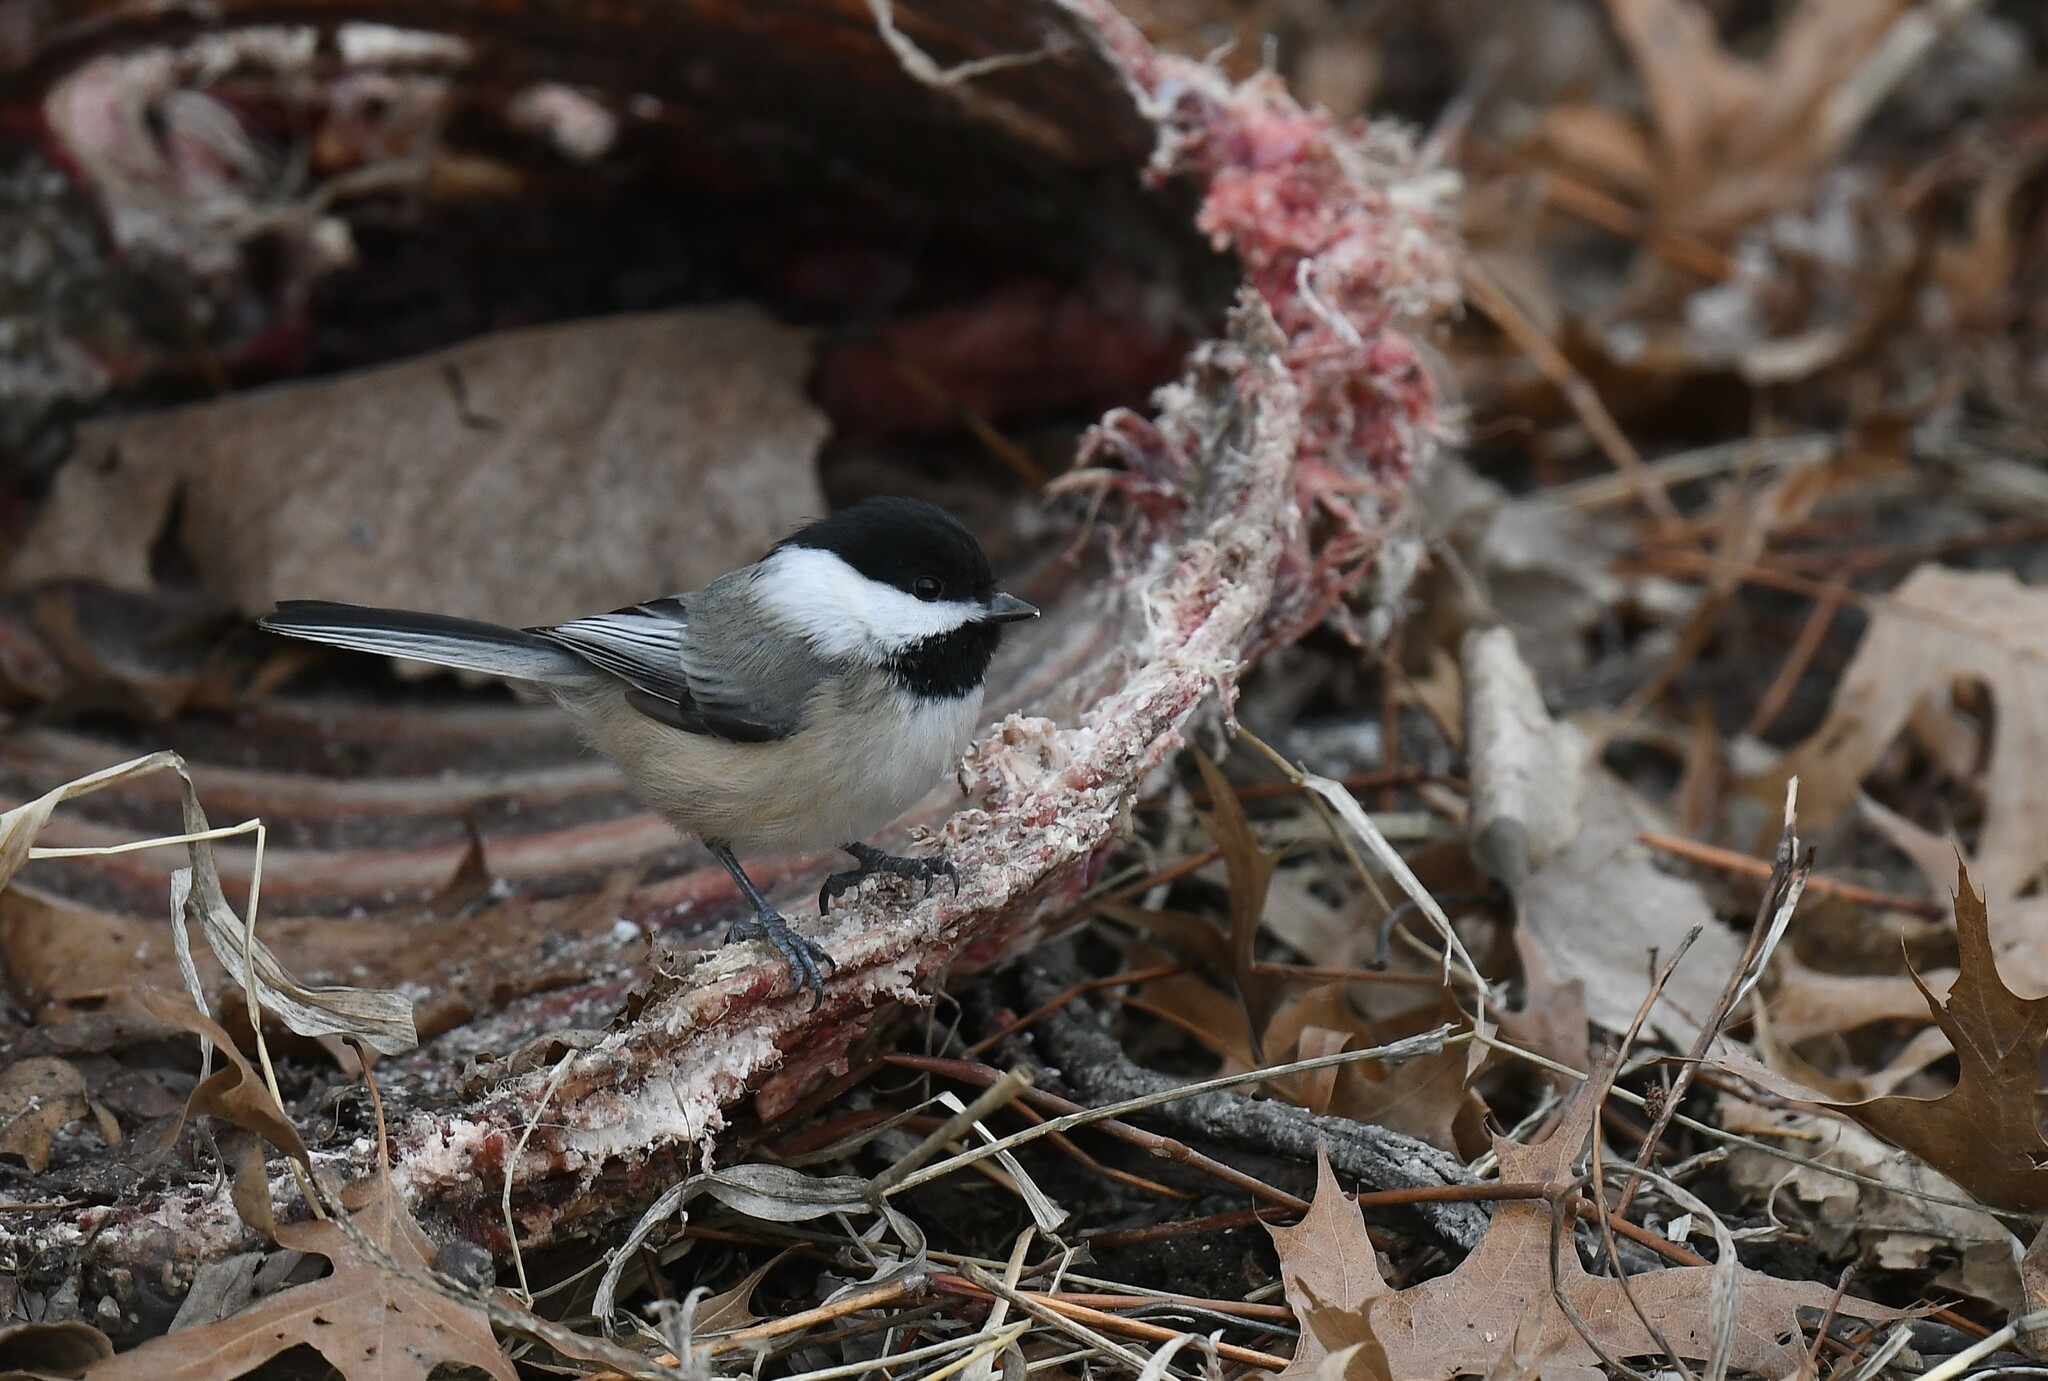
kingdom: Animalia
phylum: Chordata
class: Aves
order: Passeriformes
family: Paridae
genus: Poecile
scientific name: Poecile atricapillus
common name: Black-capped chickadee
